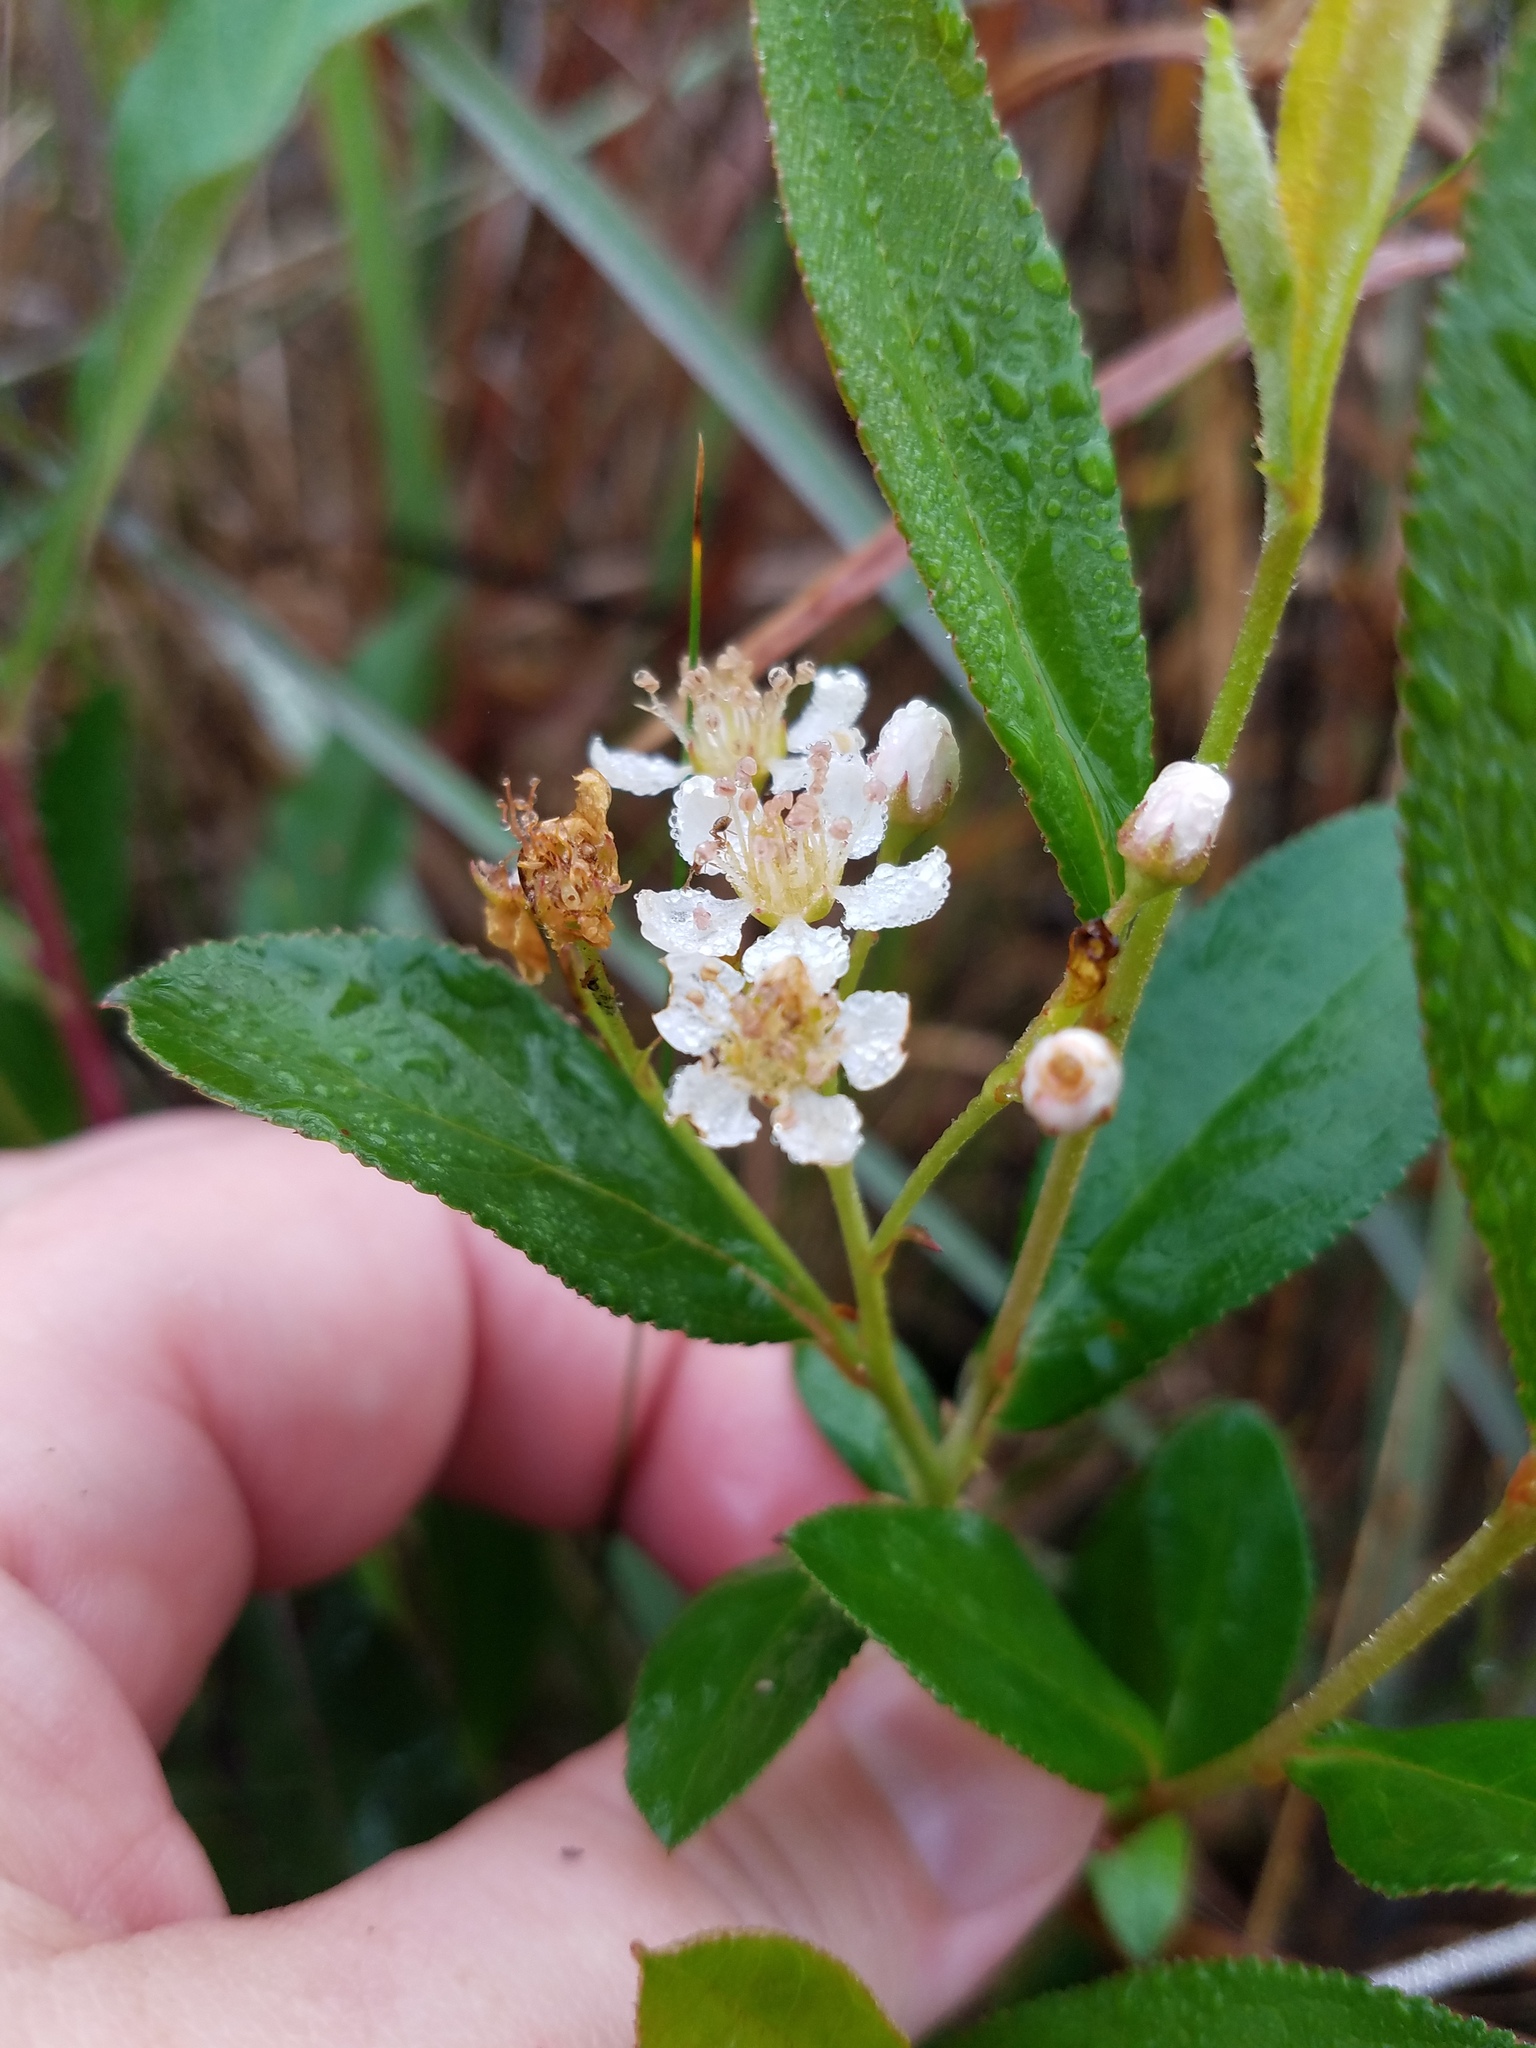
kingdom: Plantae
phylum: Tracheophyta
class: Magnoliopsida
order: Rosales
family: Rosaceae
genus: Aronia
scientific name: Aronia arbutifolia
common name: Red chokeberry
